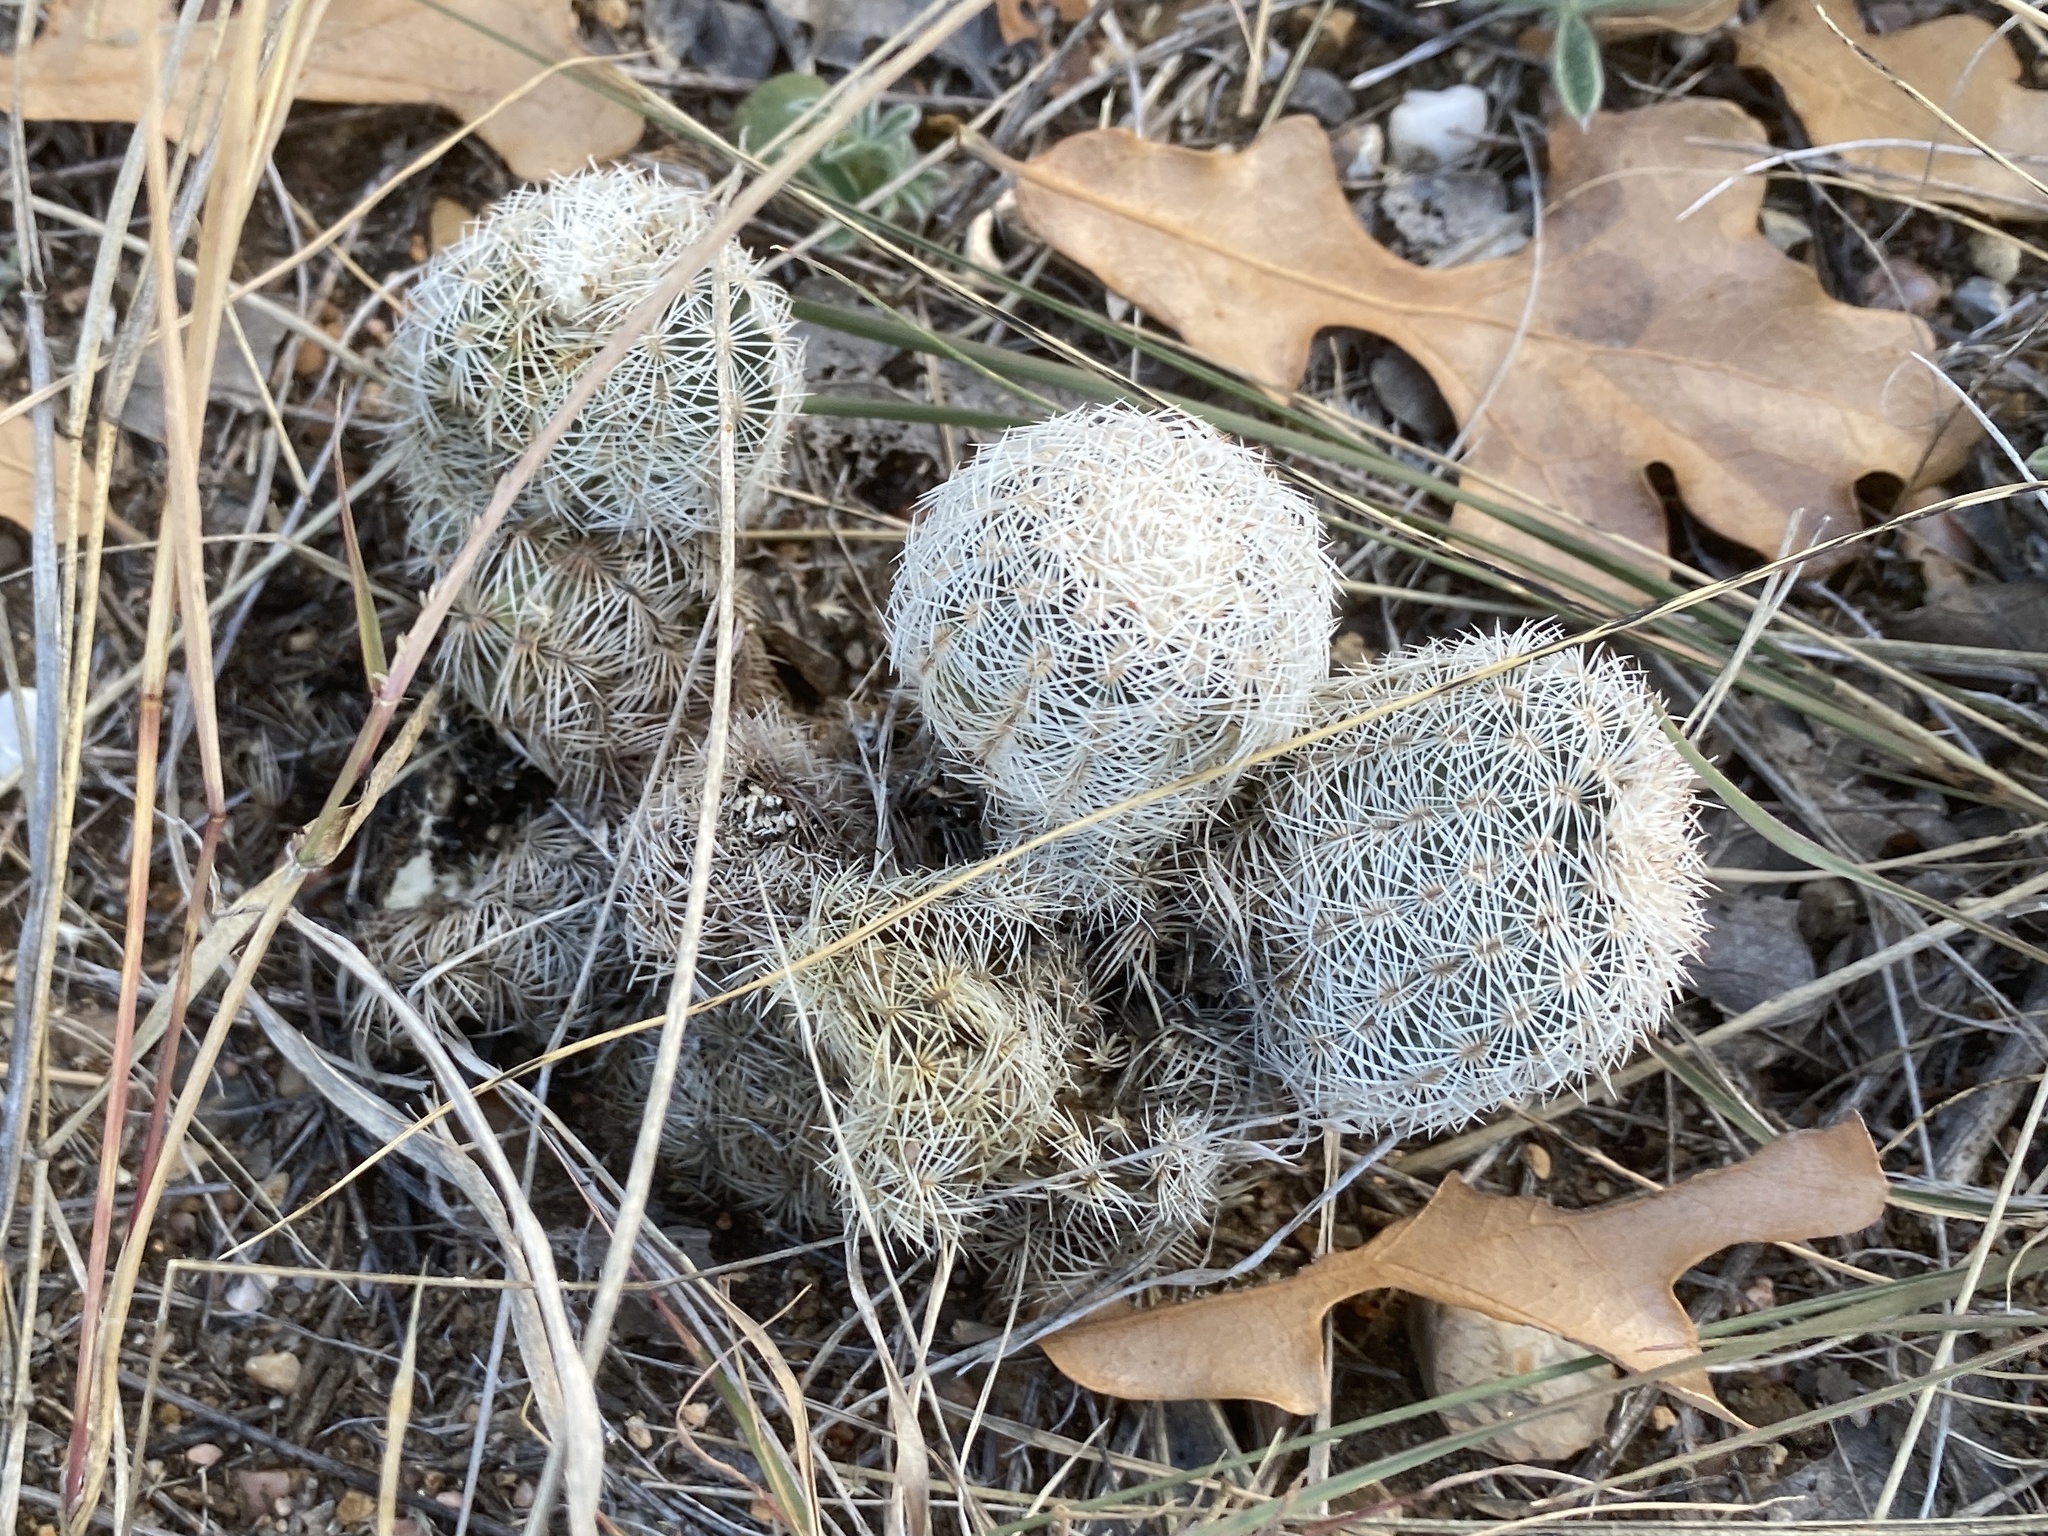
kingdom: Plantae
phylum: Tracheophyta
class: Magnoliopsida
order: Caryophyllales
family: Cactaceae
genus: Echinocereus
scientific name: Echinocereus reichenbachii
